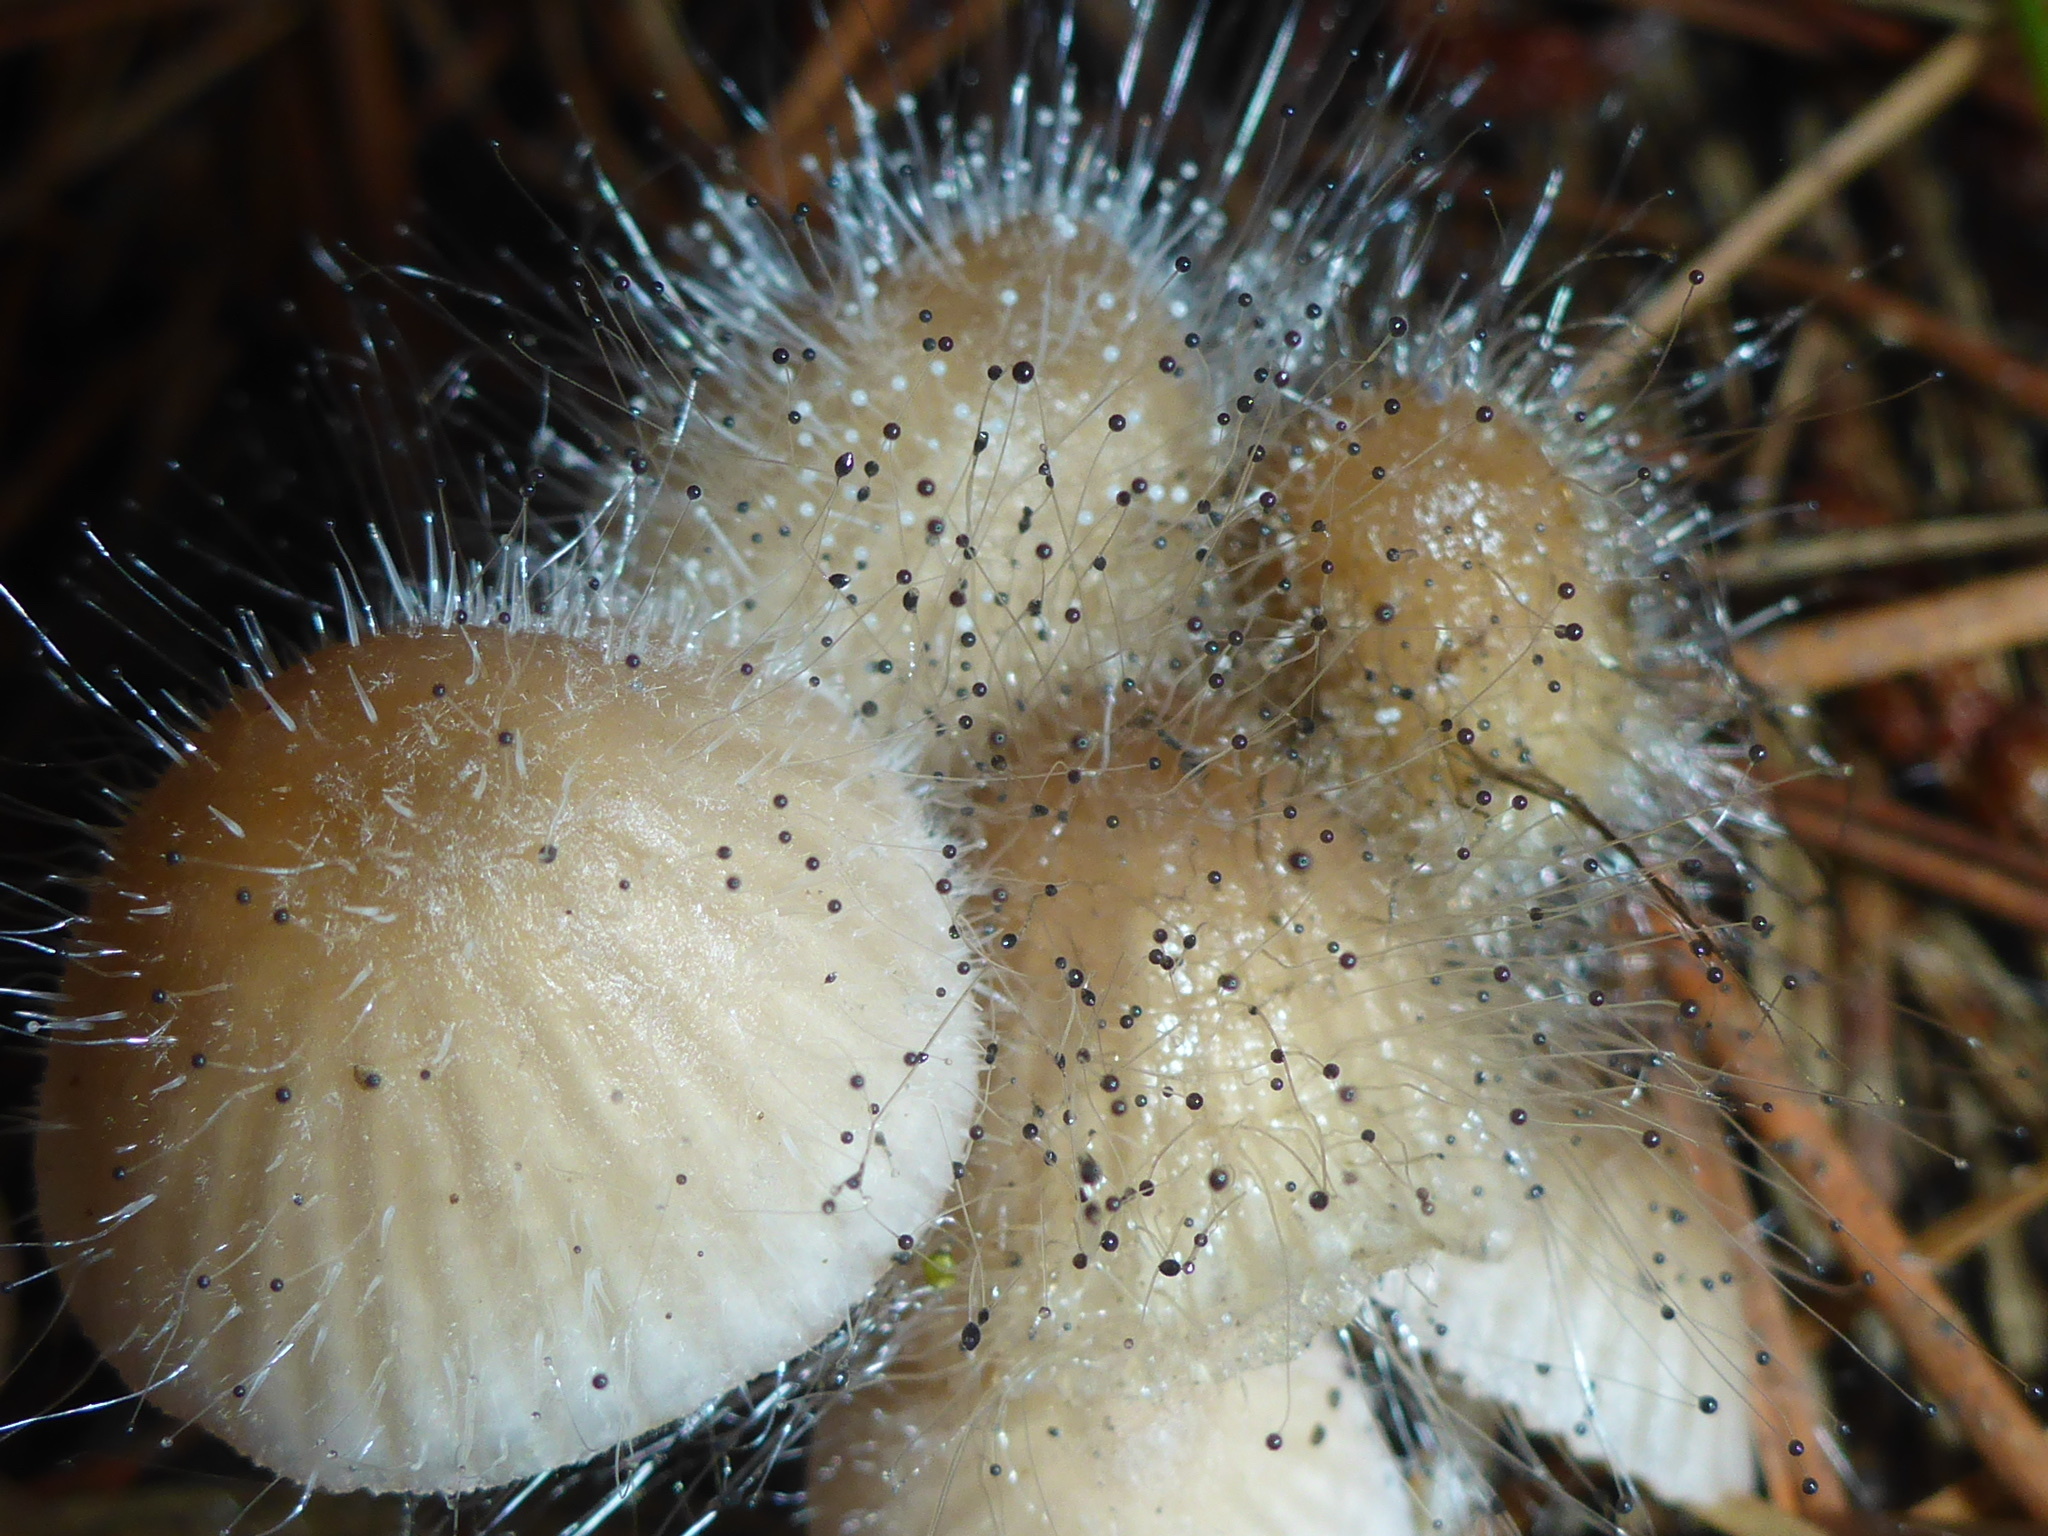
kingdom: Fungi
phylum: Mucoromycota
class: Mucoromycetes
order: Mucorales
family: Phycomycetaceae
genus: Spinellus
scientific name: Spinellus fusiger
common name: Bonnet mould
